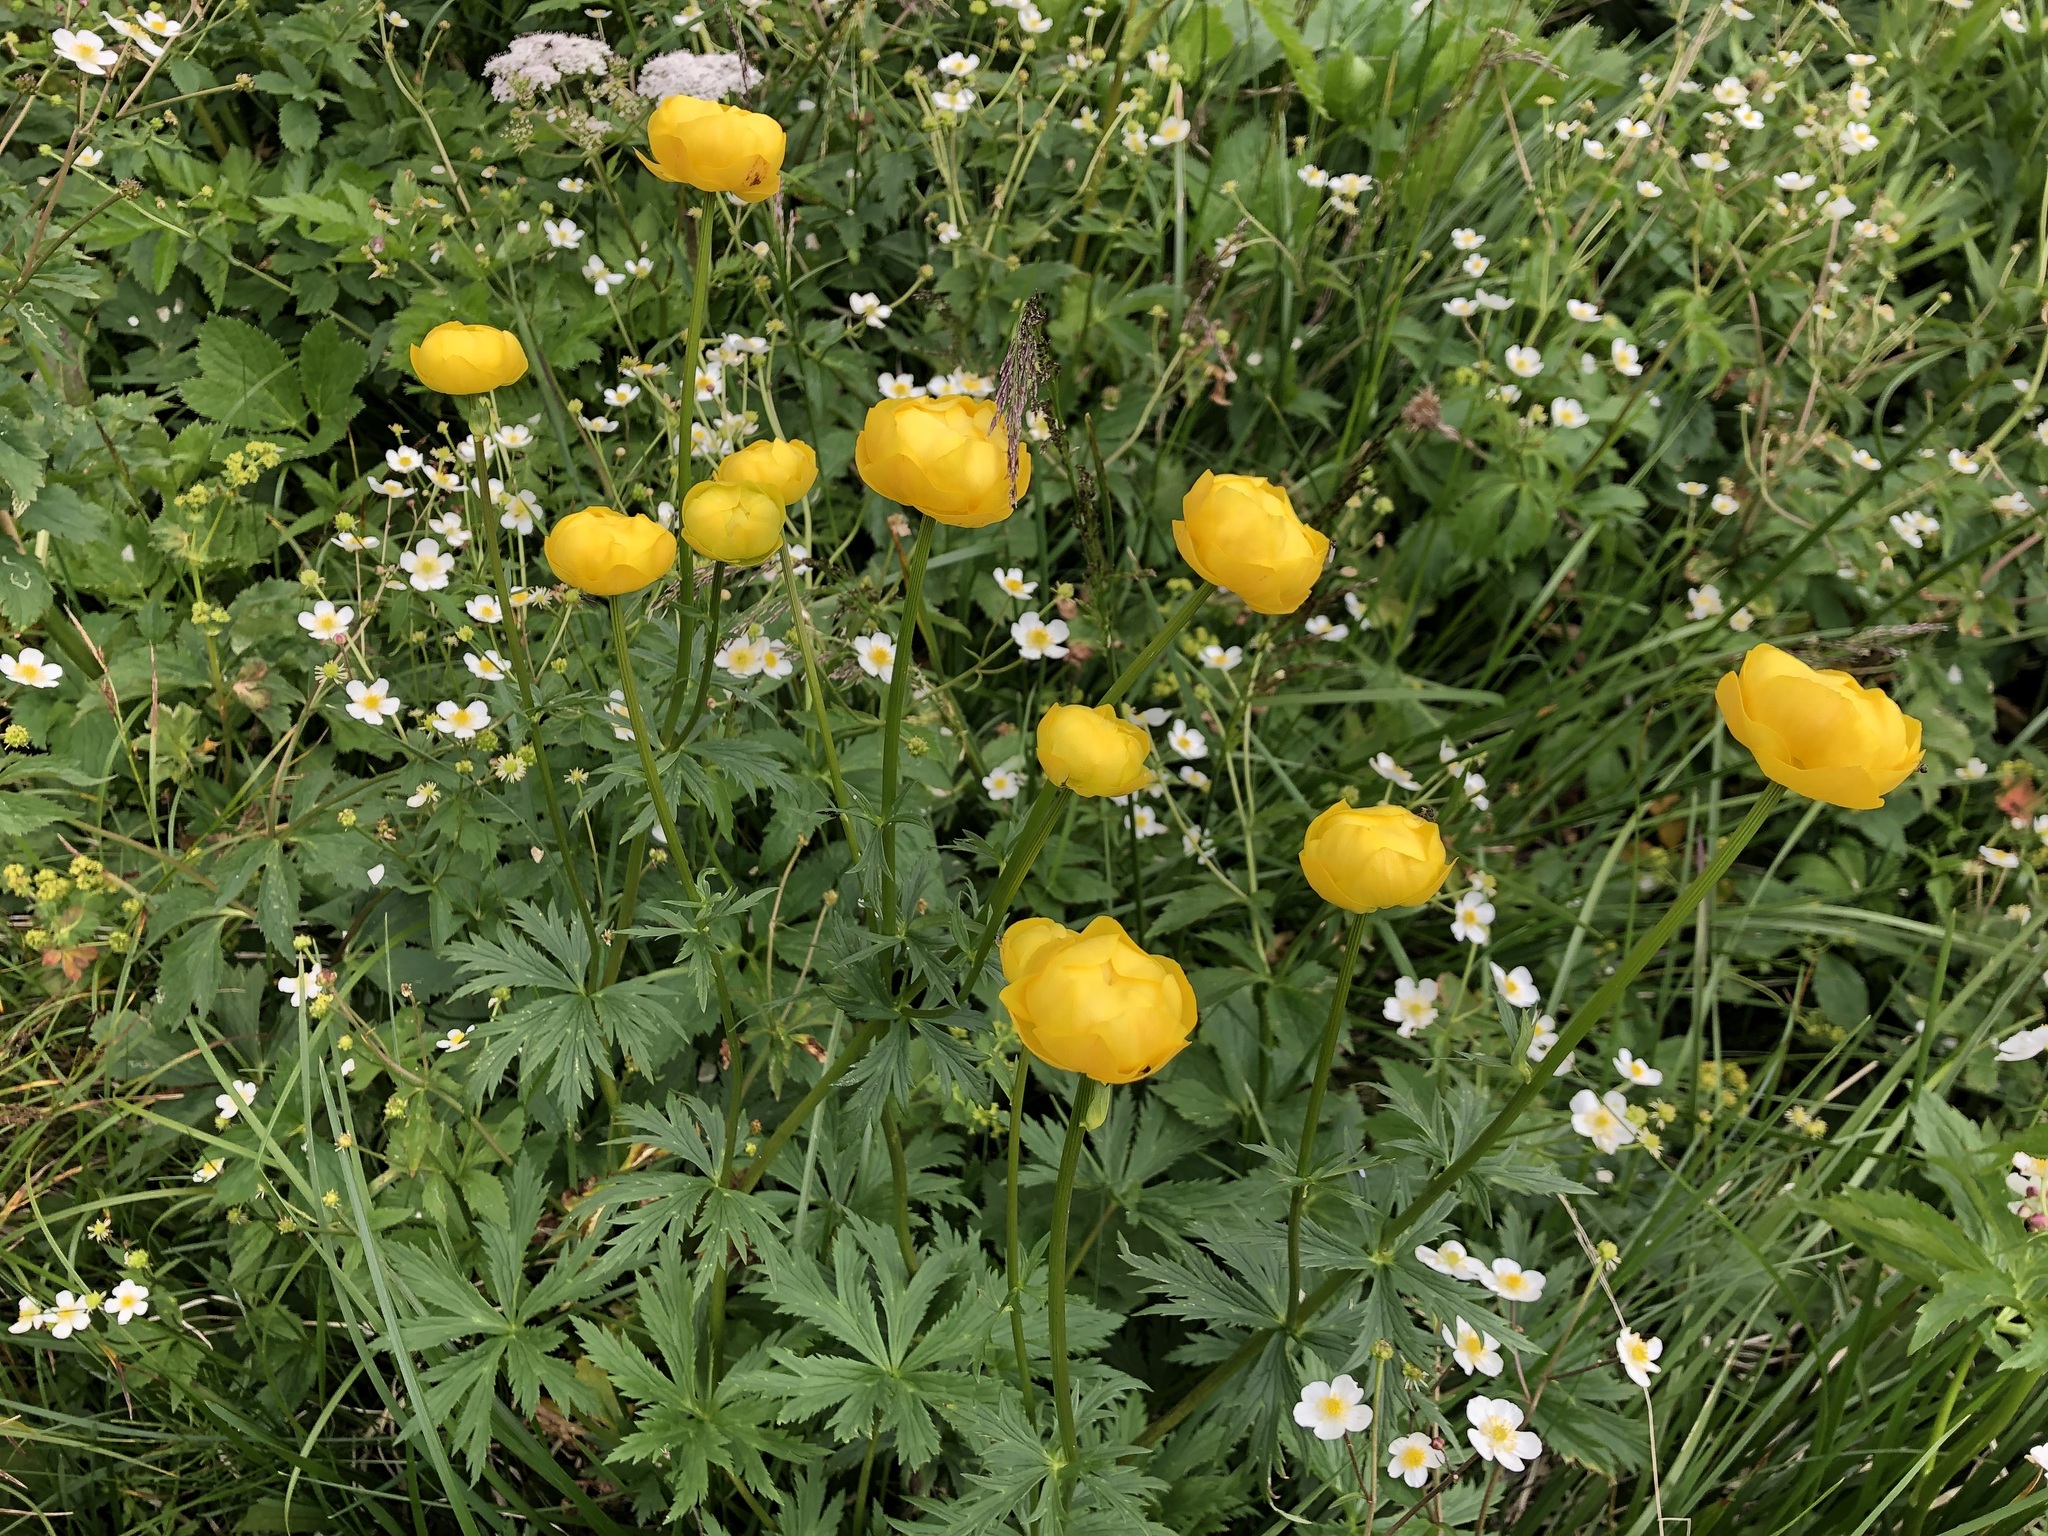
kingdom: Plantae
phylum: Tracheophyta
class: Magnoliopsida
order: Ranunculales
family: Ranunculaceae
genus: Trollius
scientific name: Trollius europaeus
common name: European globeflower
